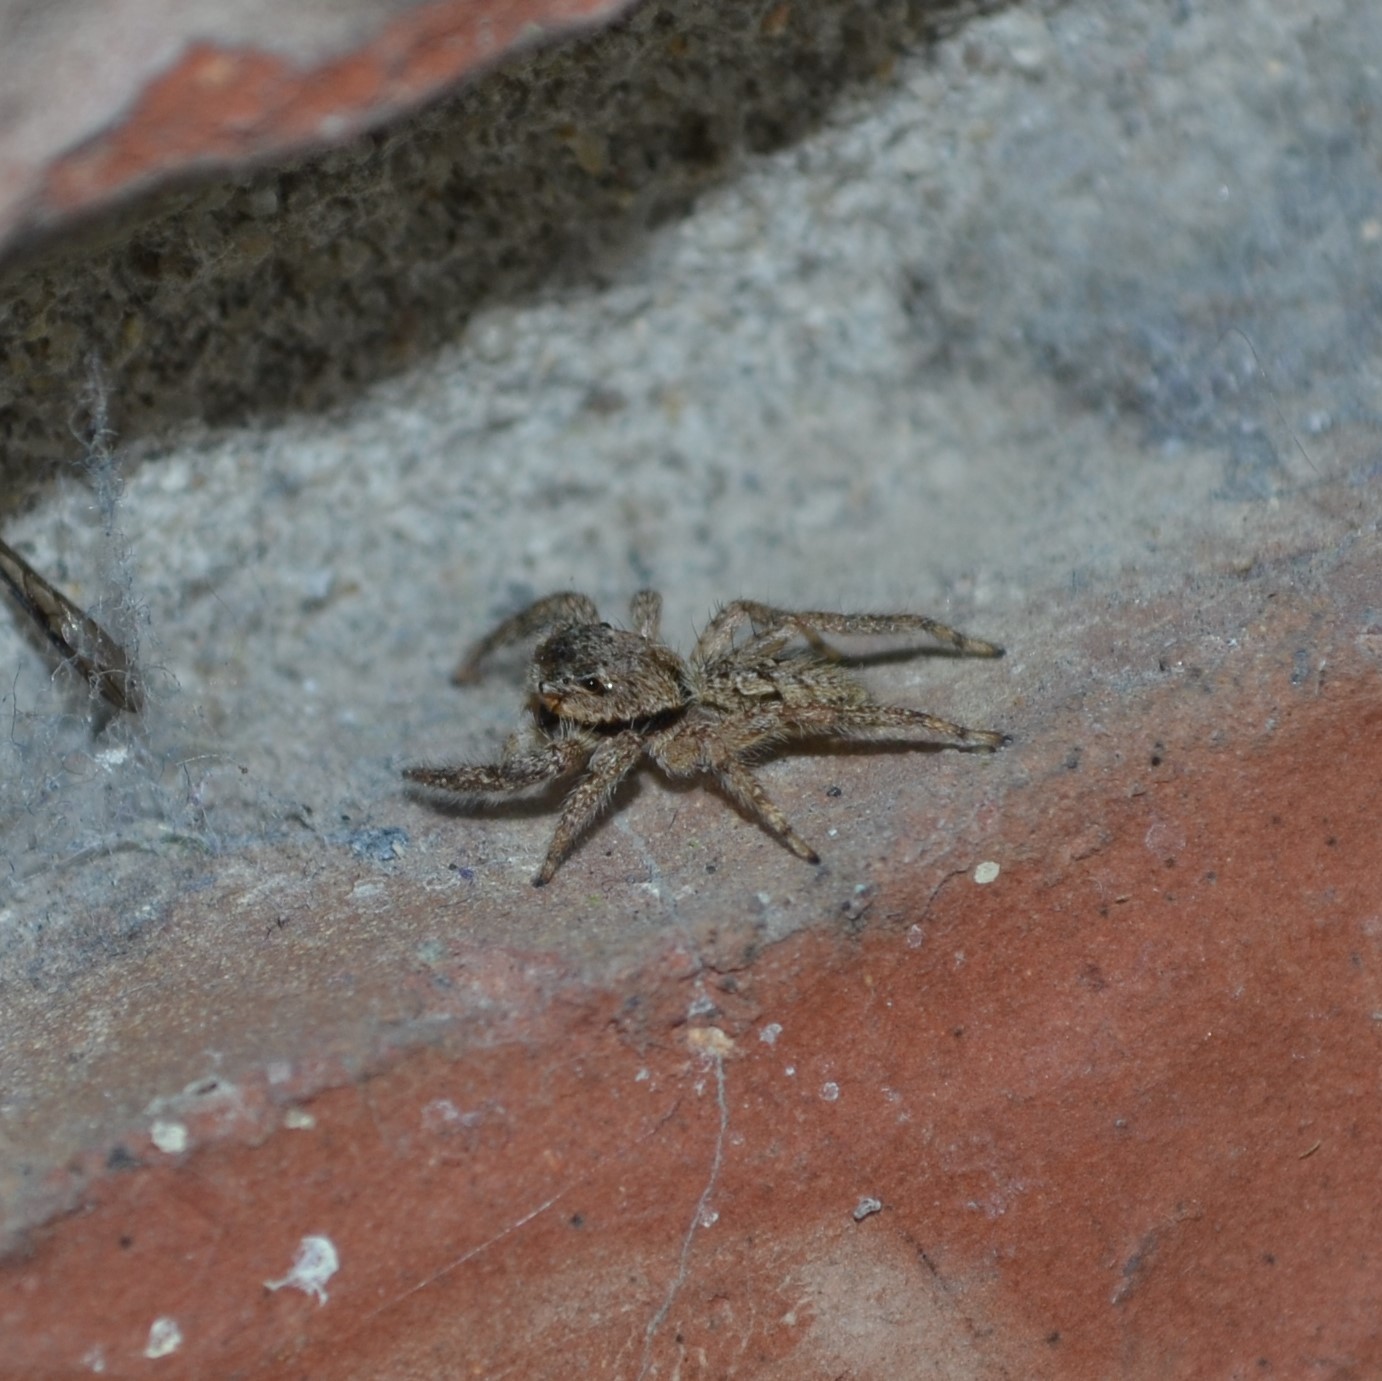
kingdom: Animalia
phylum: Arthropoda
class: Arachnida
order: Araneae
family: Salticidae
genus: Platycryptus
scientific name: Platycryptus undatus
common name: Tan jumping spider
